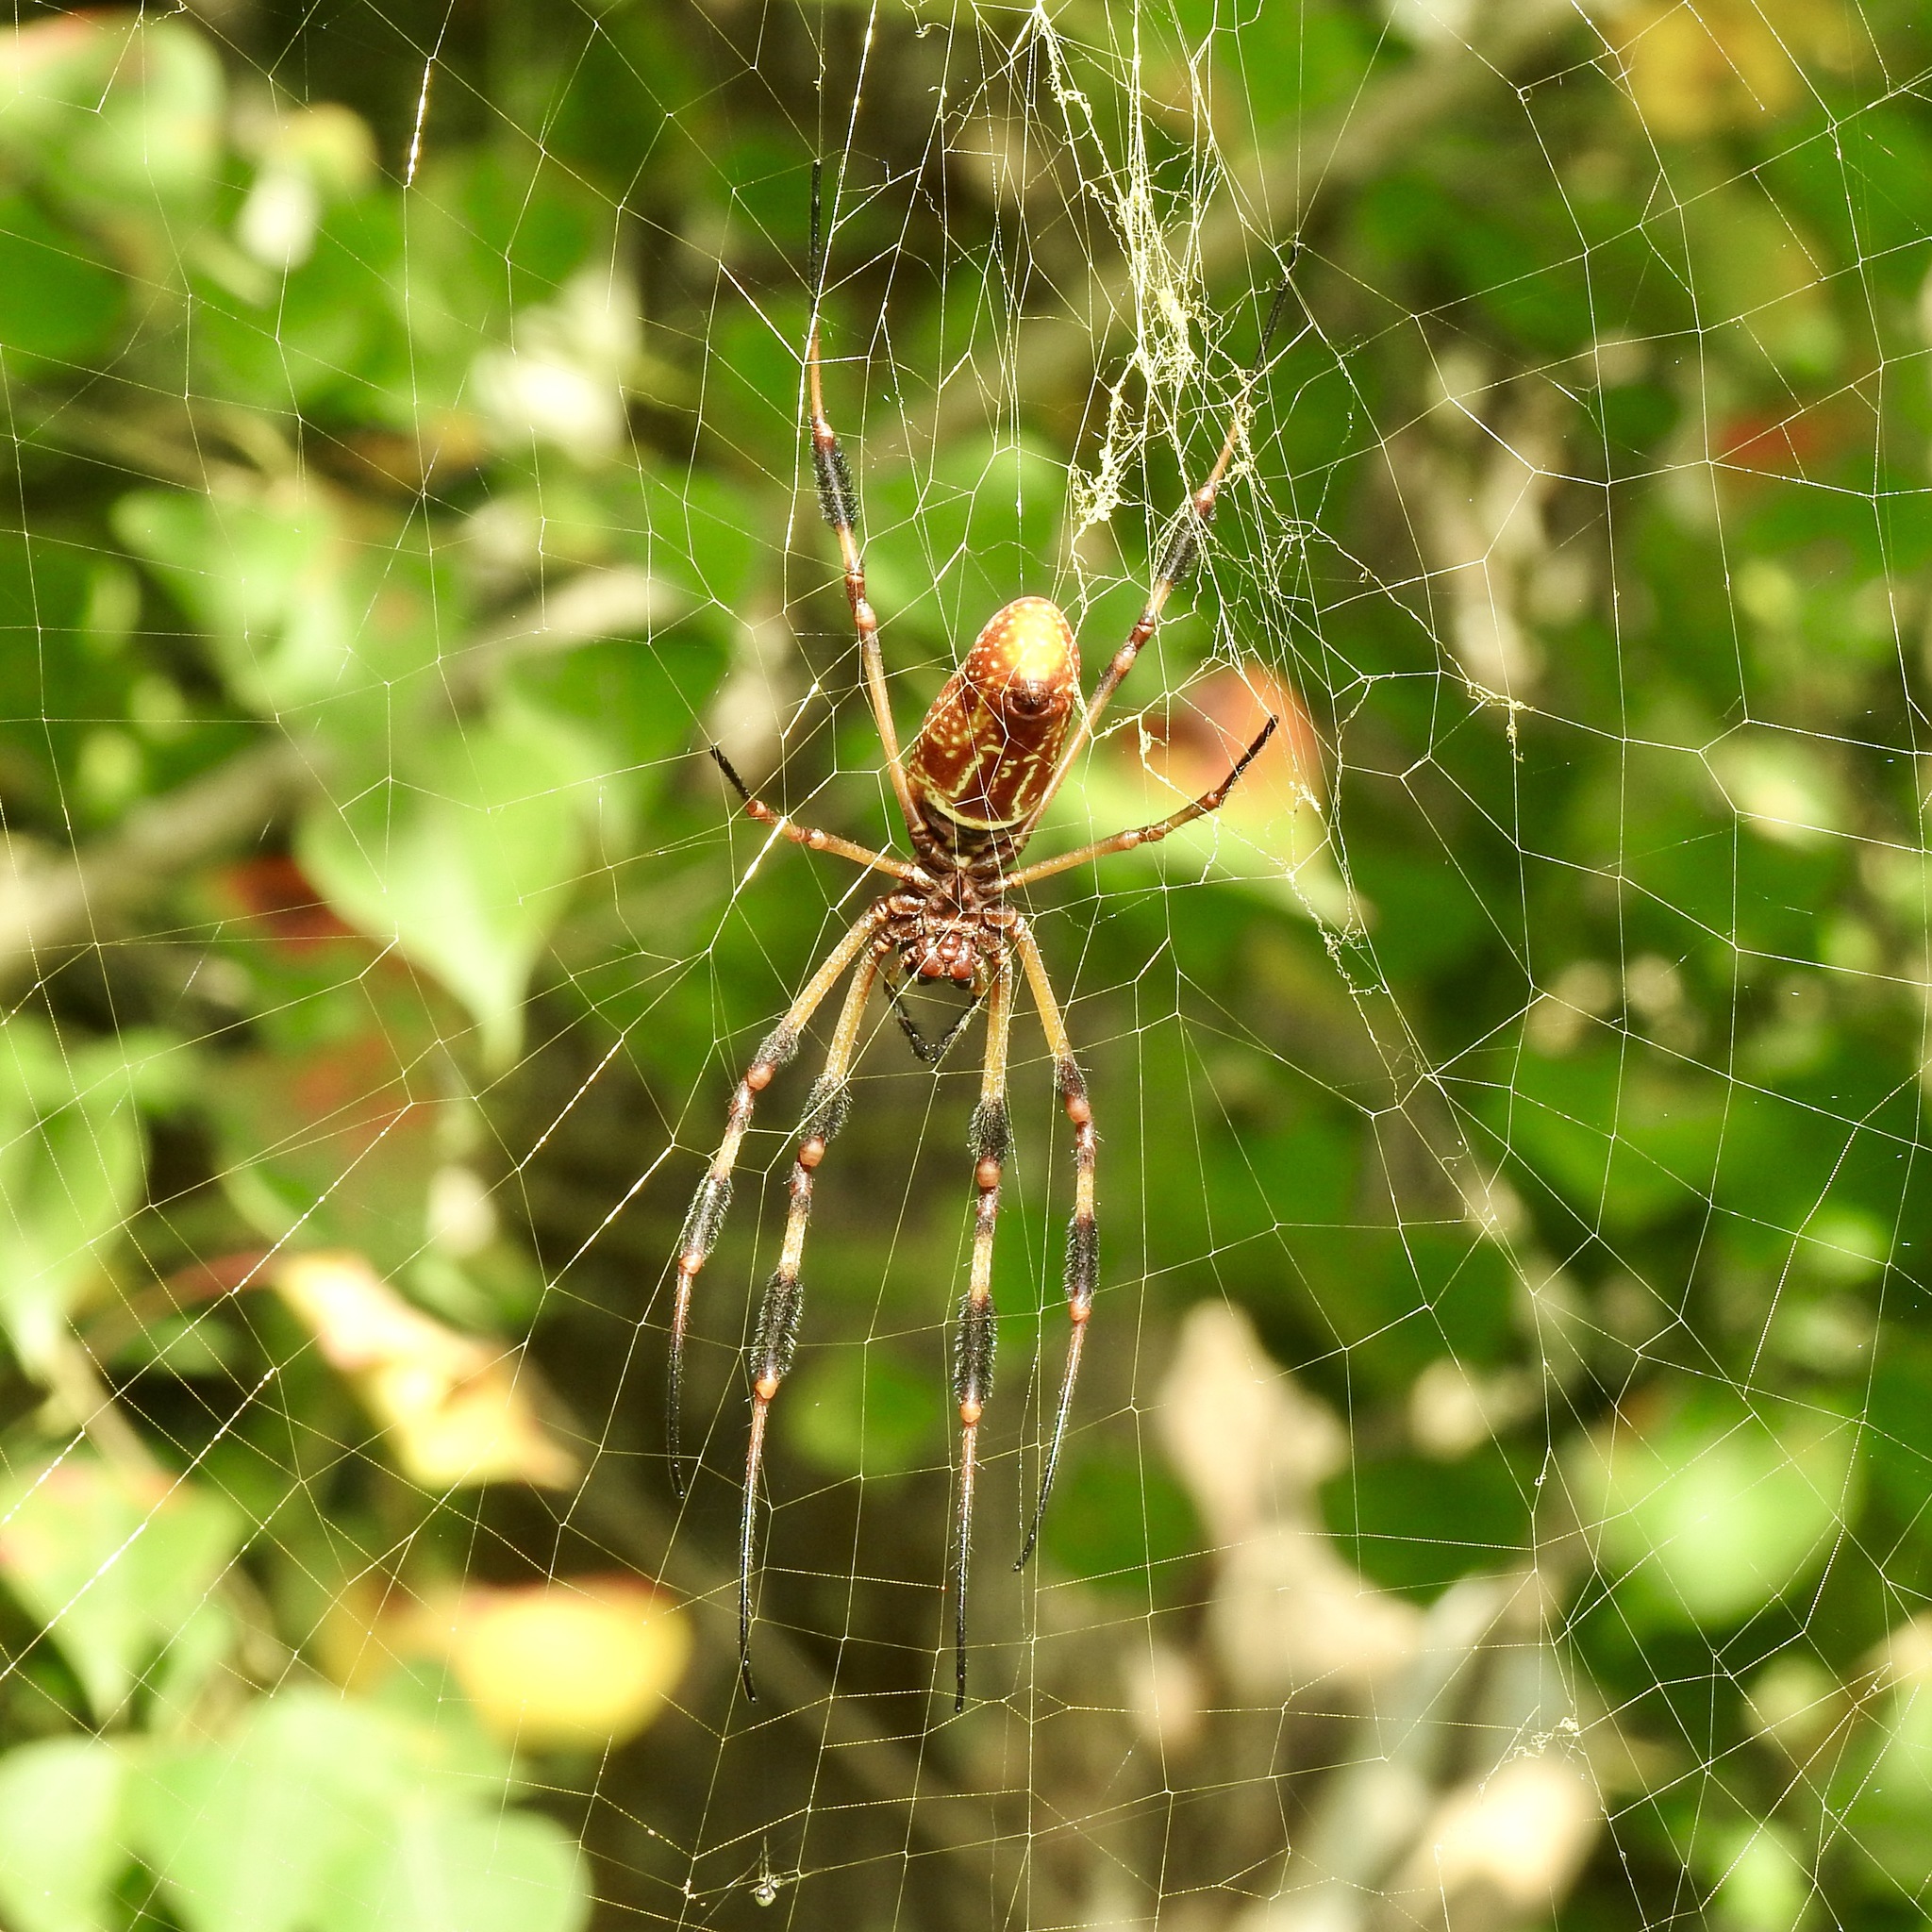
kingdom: Animalia
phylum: Arthropoda
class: Arachnida
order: Araneae
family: Araneidae
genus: Trichonephila
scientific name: Trichonephila clavipes
